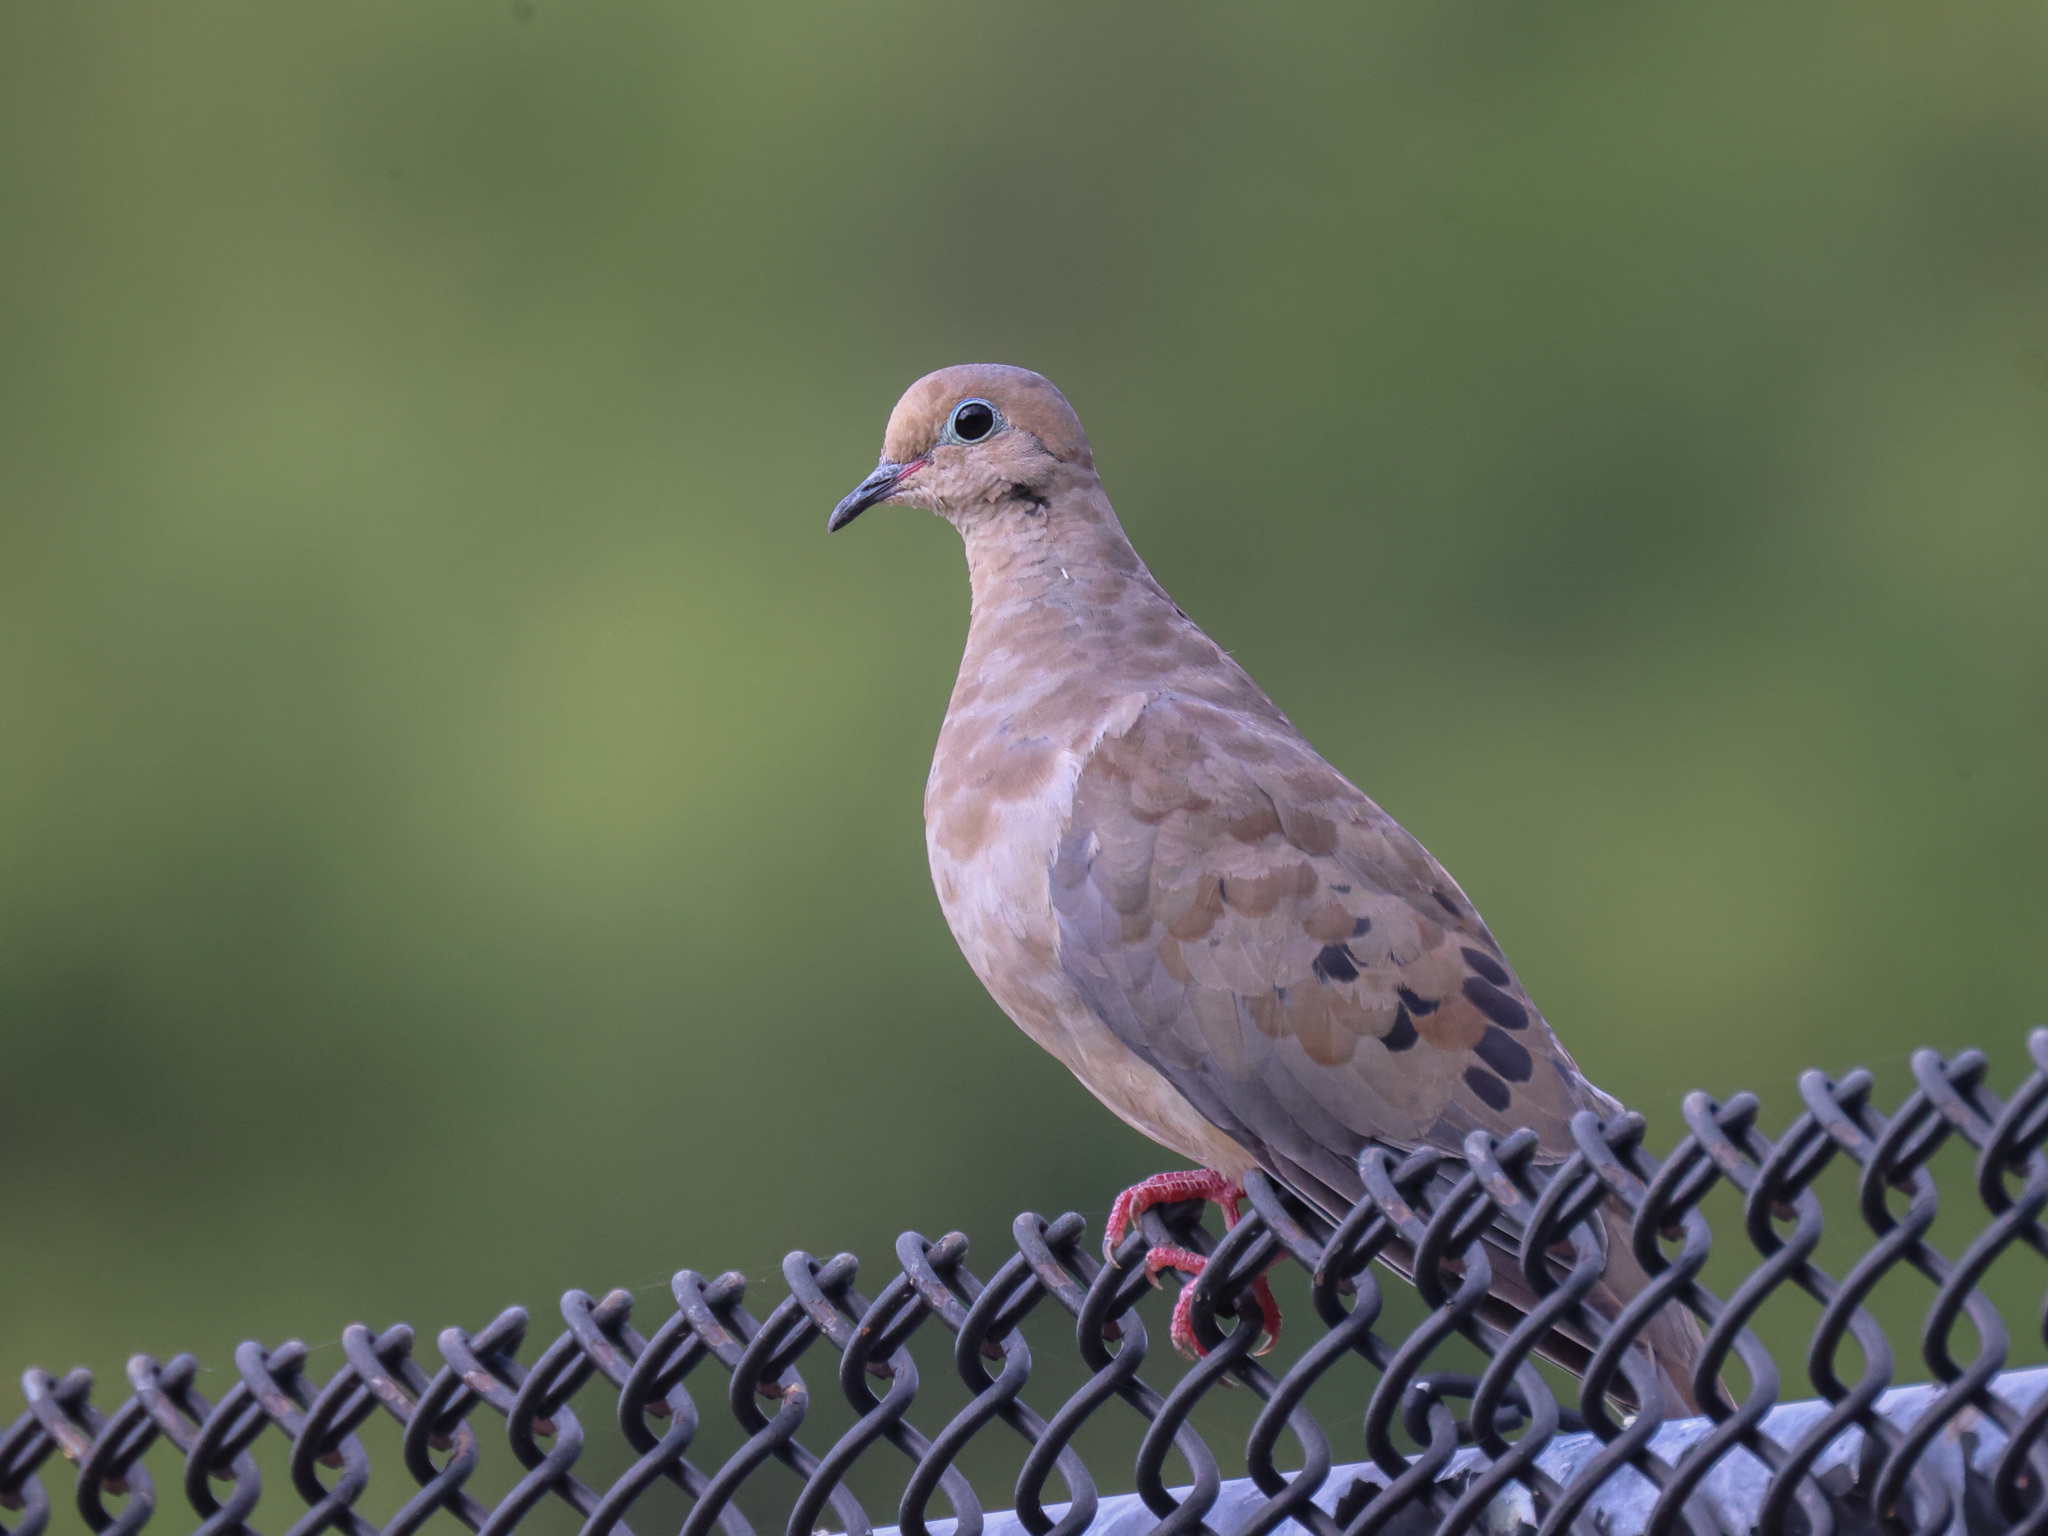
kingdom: Animalia
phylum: Chordata
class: Aves
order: Columbiformes
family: Columbidae
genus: Zenaida
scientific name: Zenaida macroura
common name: Mourning dove
